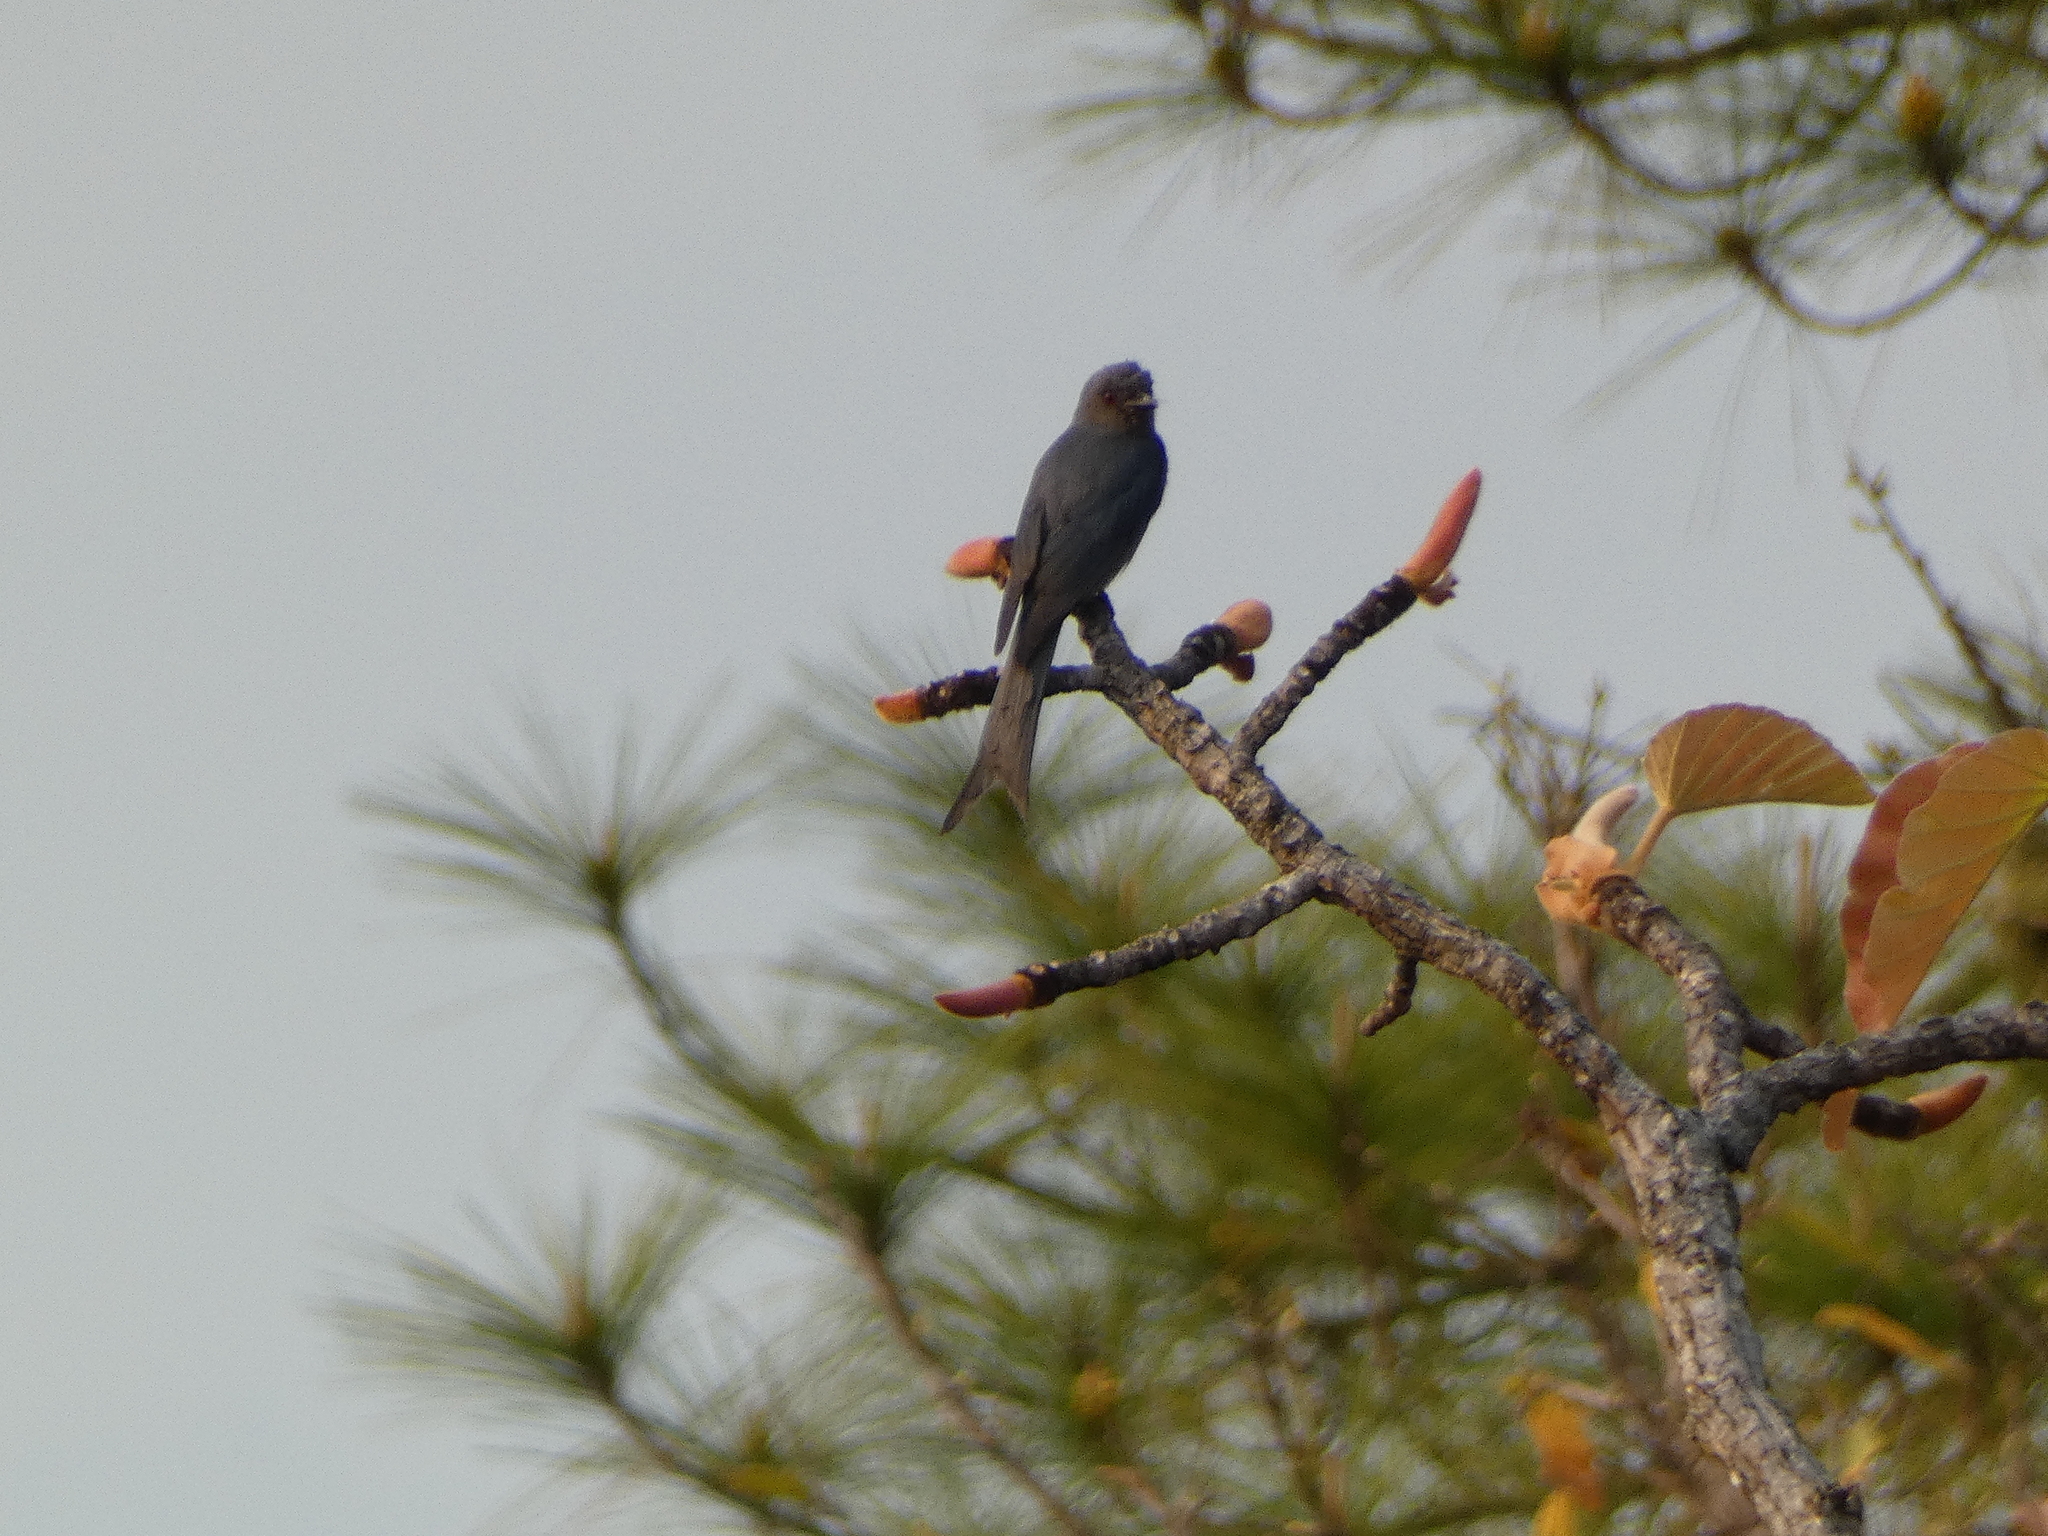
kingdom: Animalia
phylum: Chordata
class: Aves
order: Passeriformes
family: Dicruridae
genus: Dicrurus
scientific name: Dicrurus leucophaeus
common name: Ashy drongo
